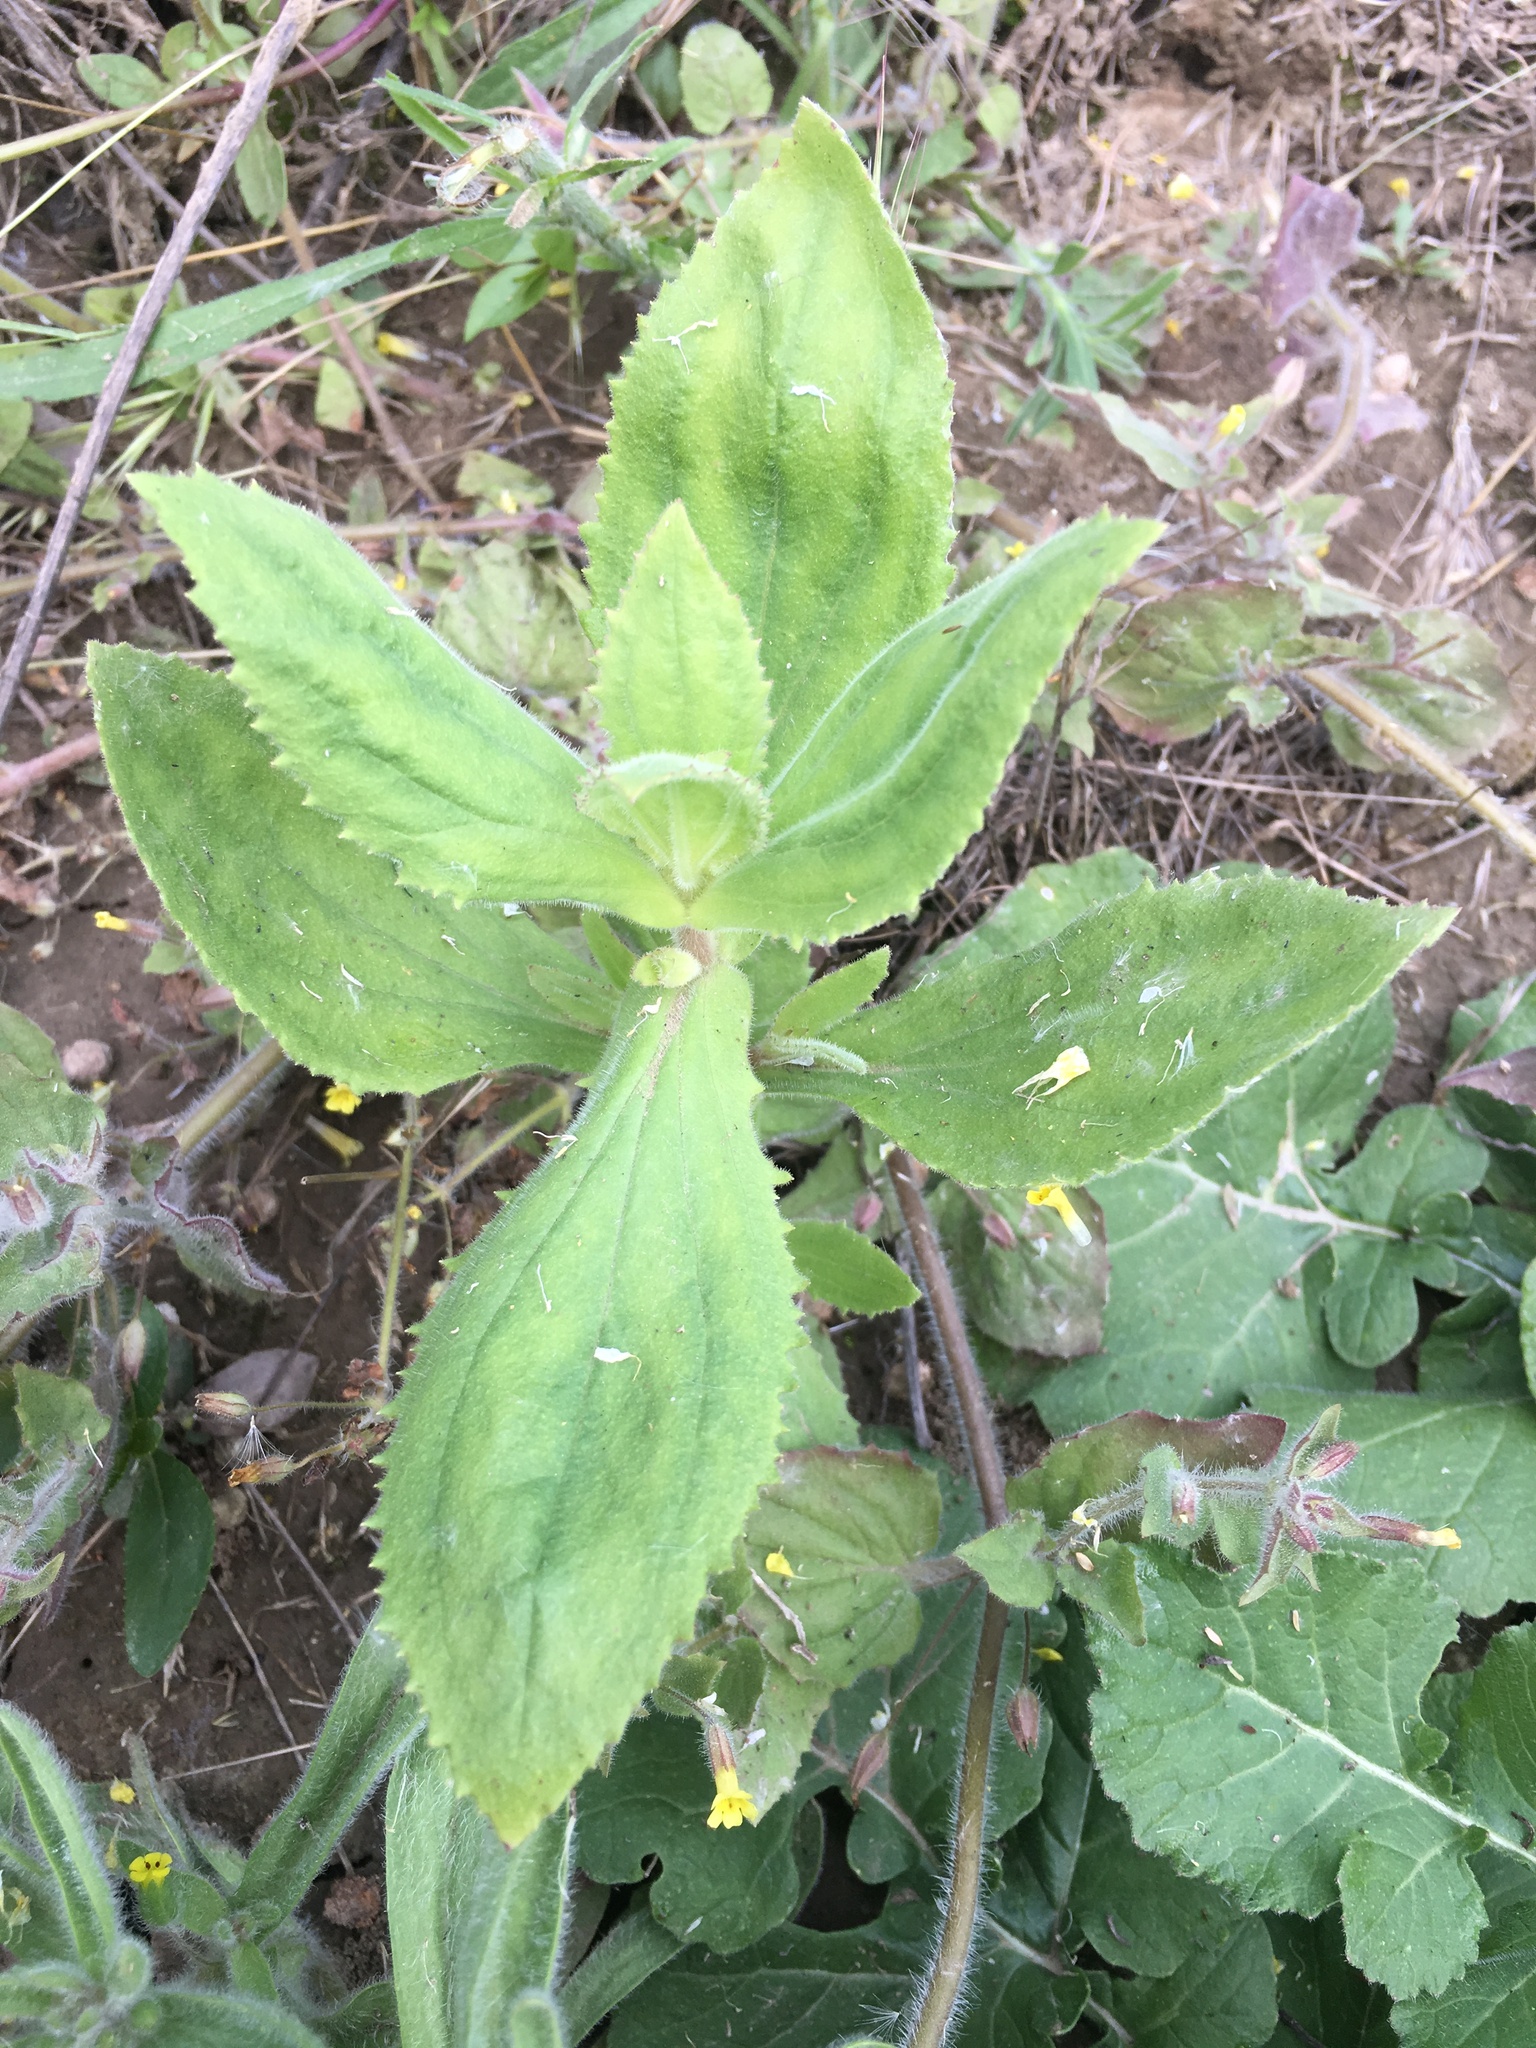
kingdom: Plantae
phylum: Tracheophyta
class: Magnoliopsida
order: Lamiales
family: Phrymaceae
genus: Erythranthe
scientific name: Erythranthe cardinalis
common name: Scarlet monkey-flower
